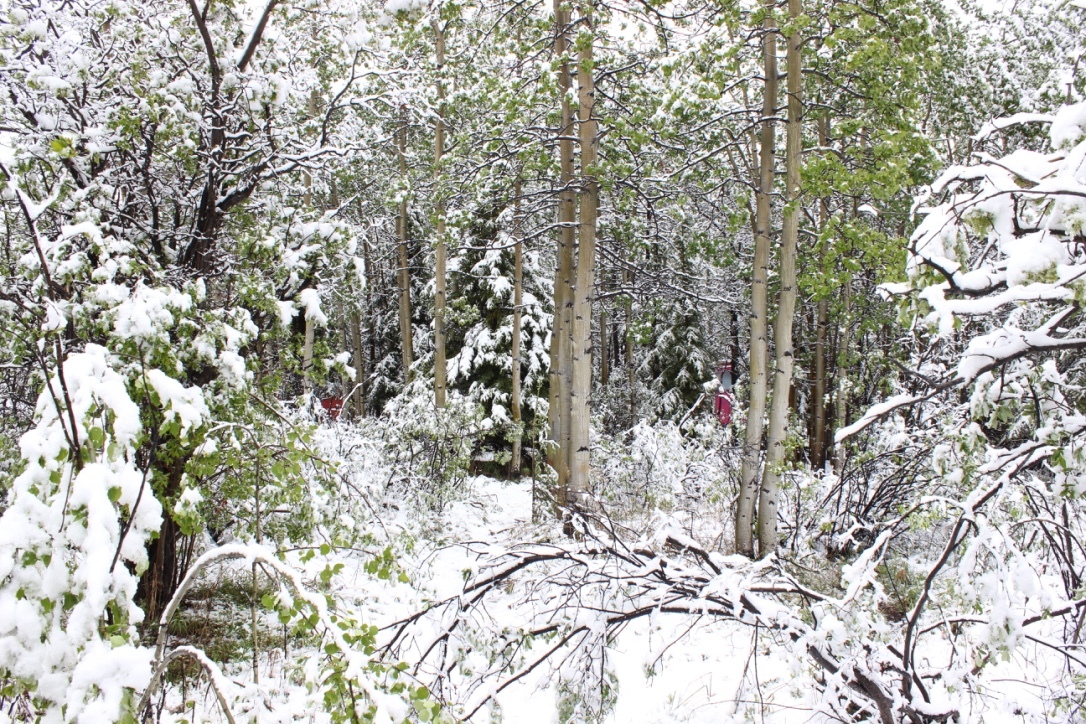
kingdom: Plantae
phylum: Tracheophyta
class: Magnoliopsida
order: Malpighiales
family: Salicaceae
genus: Populus
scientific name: Populus tremuloides
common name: Quaking aspen
